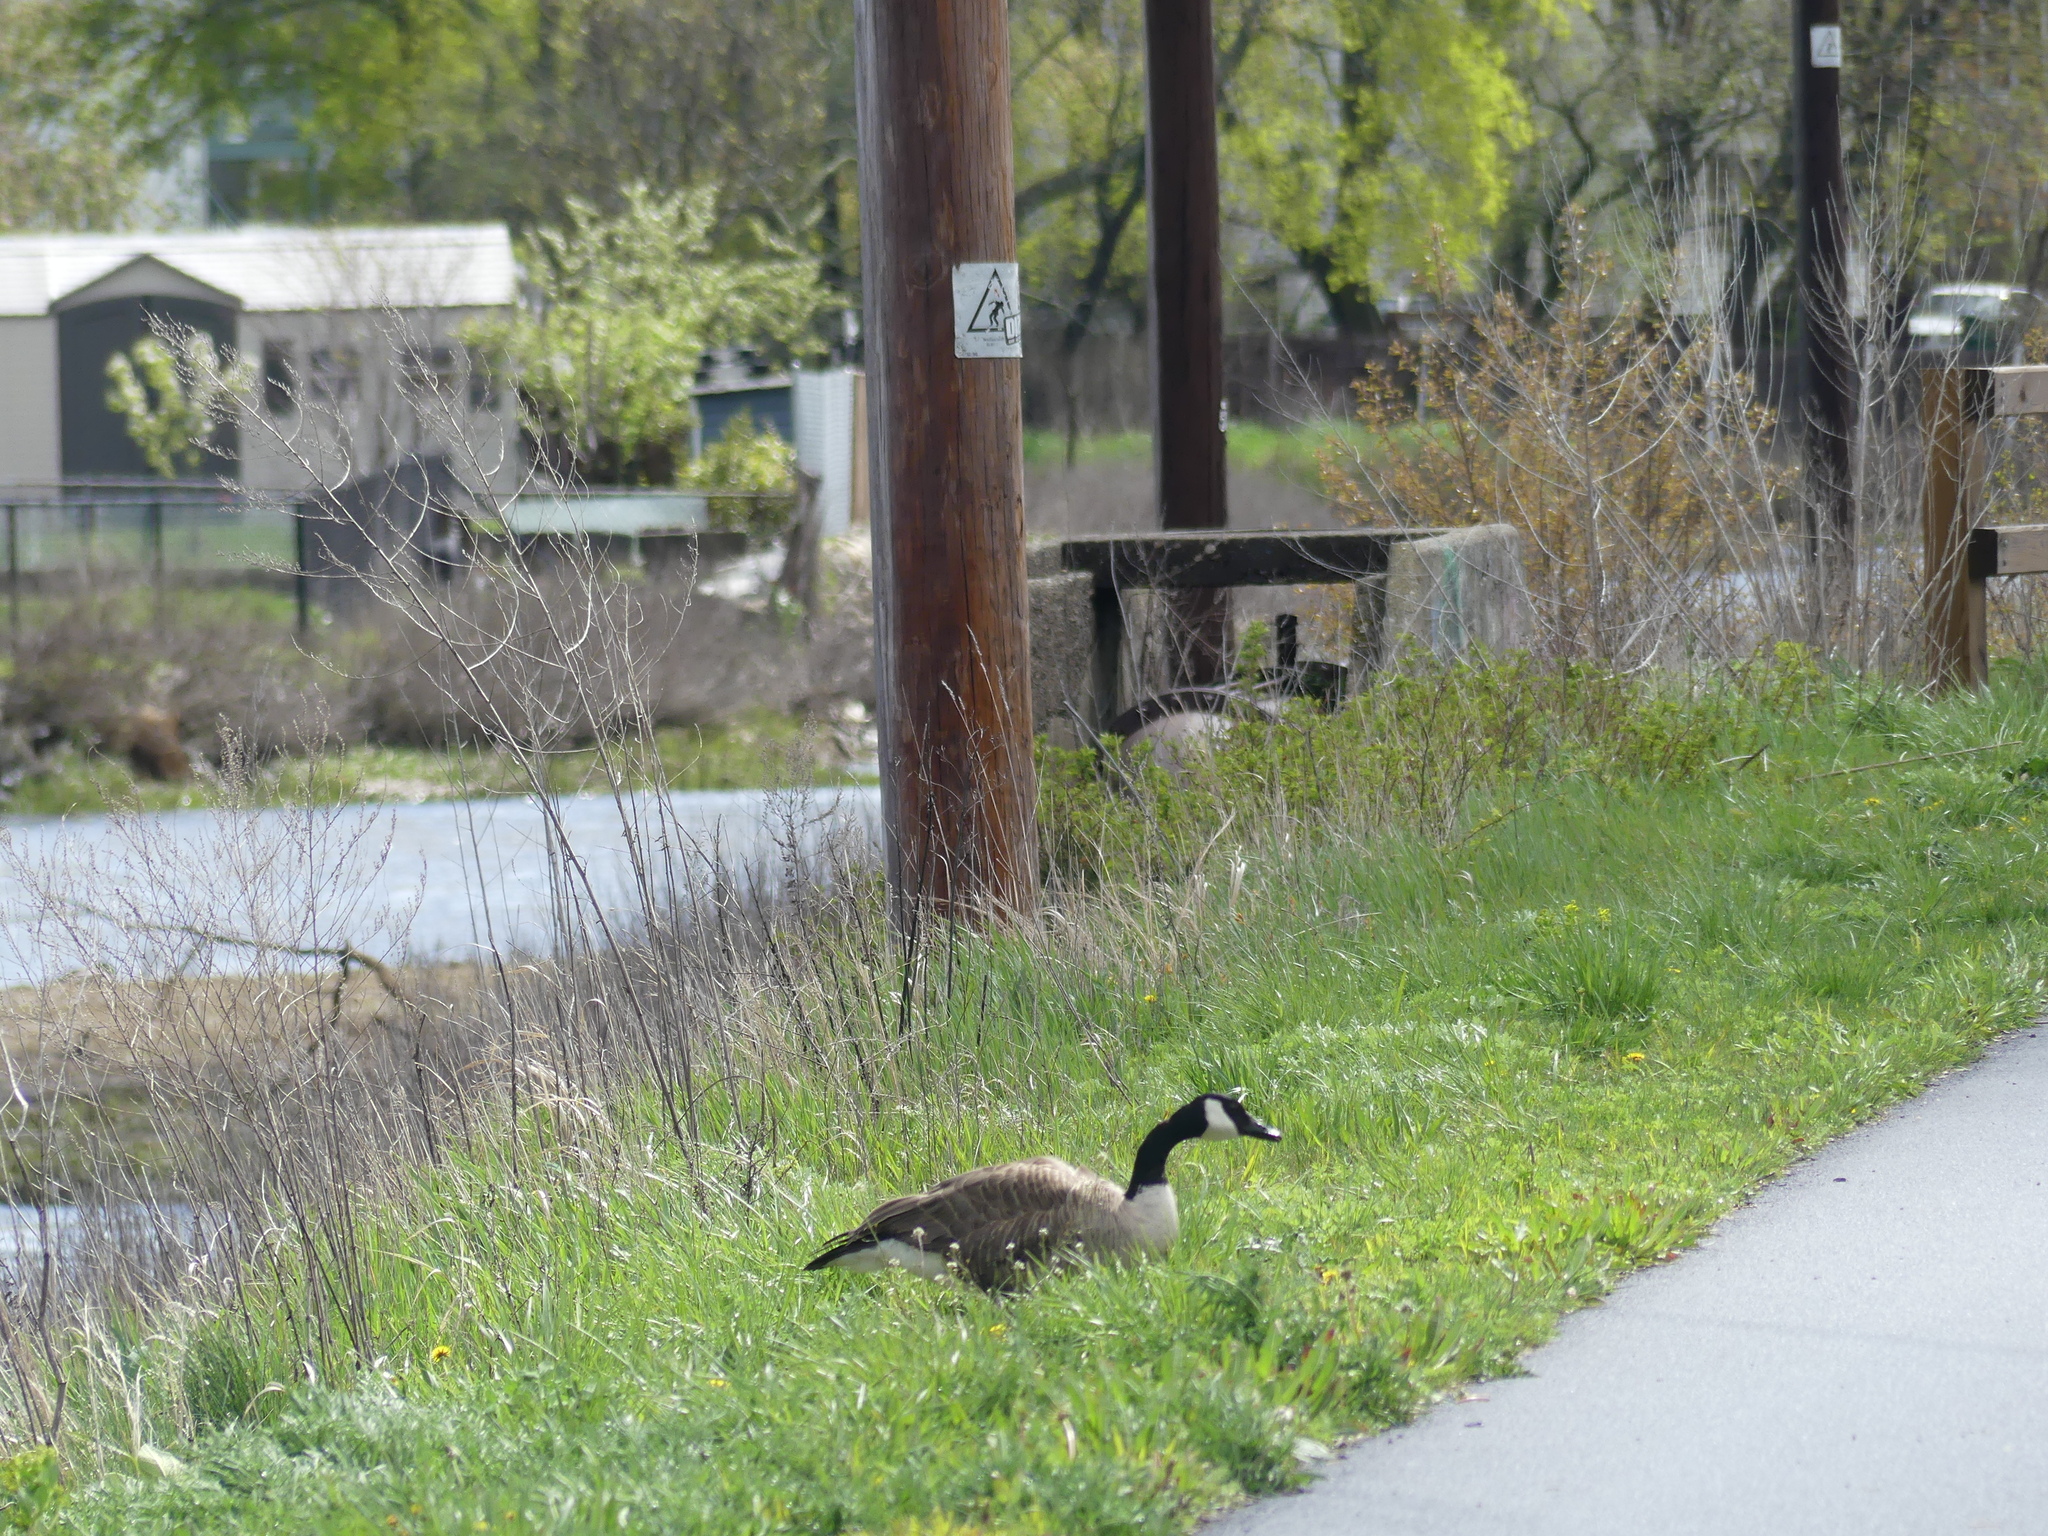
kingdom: Animalia
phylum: Chordata
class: Aves
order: Anseriformes
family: Anatidae
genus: Branta
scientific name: Branta canadensis
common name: Canada goose
